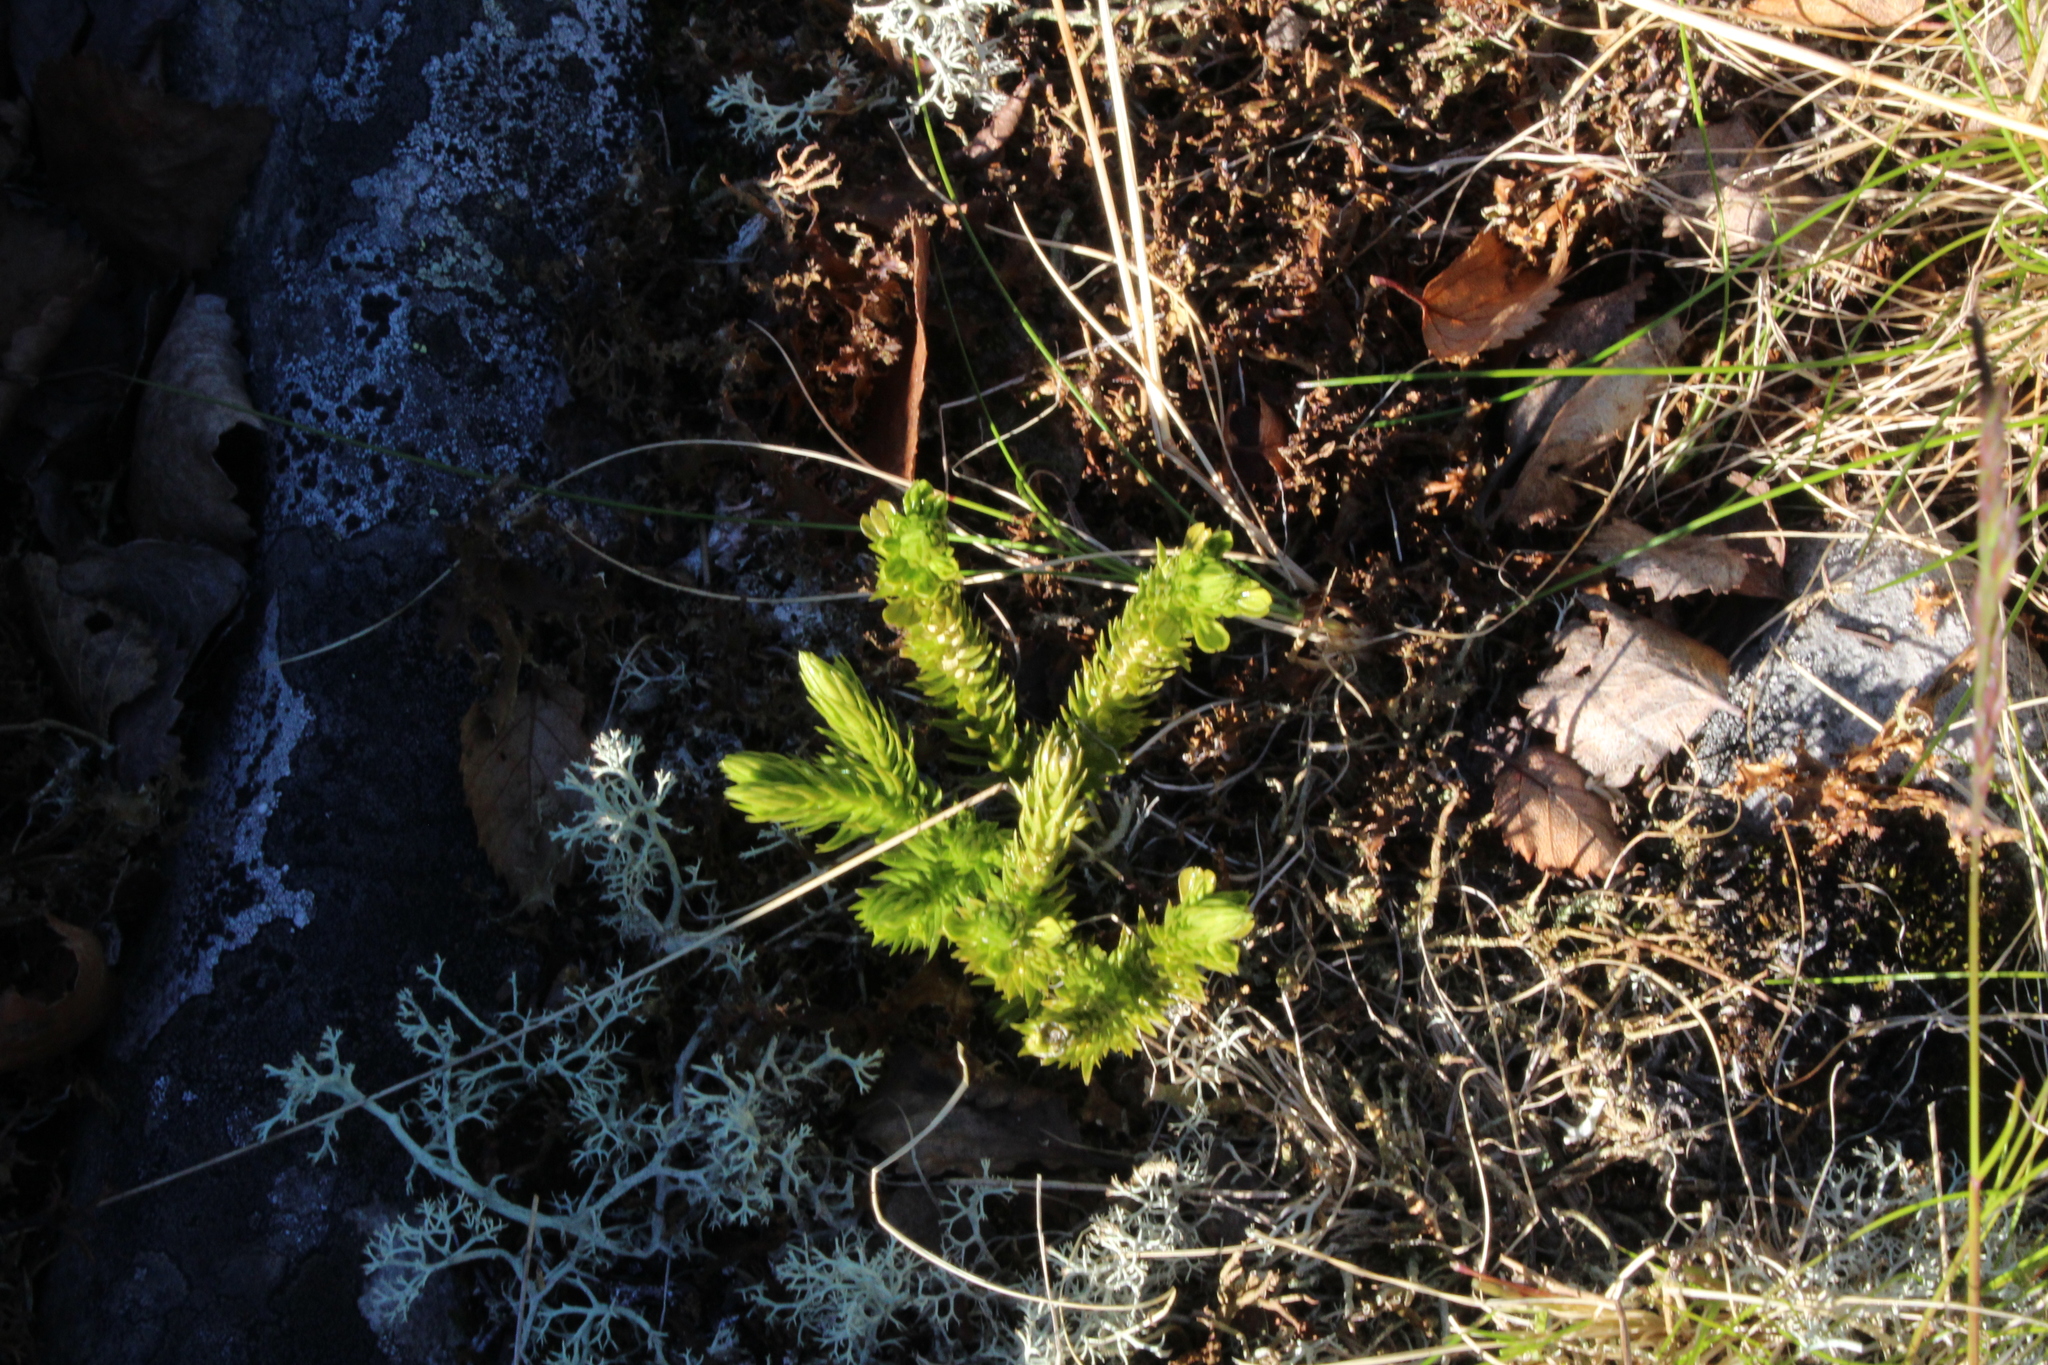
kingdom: Plantae
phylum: Tracheophyta
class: Lycopodiopsida
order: Lycopodiales
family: Lycopodiaceae
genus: Huperzia
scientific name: Huperzia selago
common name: Northern firmoss
